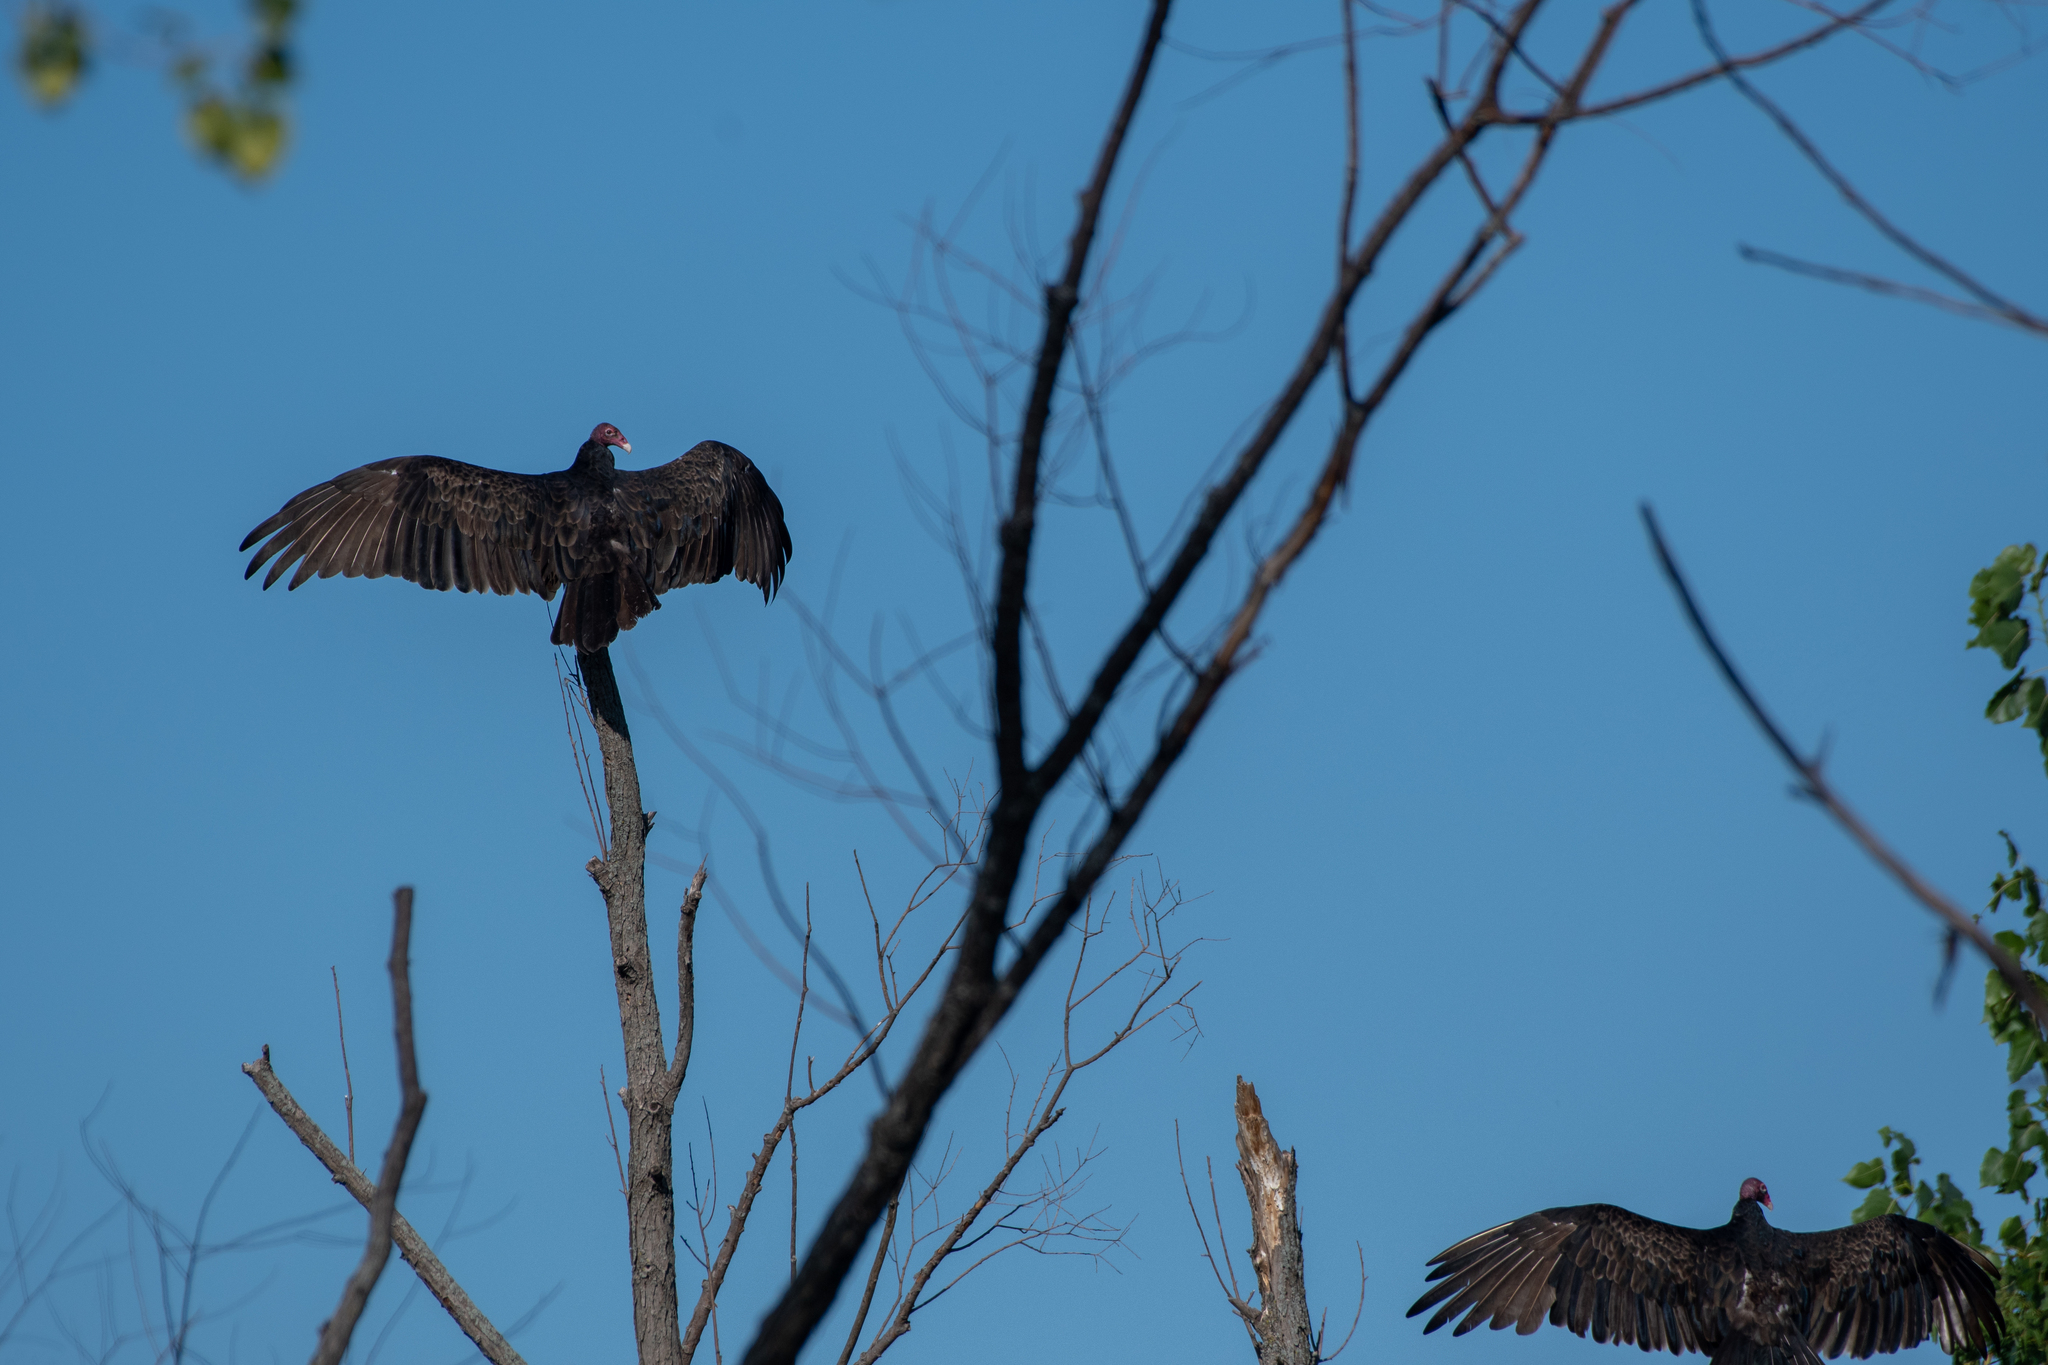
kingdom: Animalia
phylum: Chordata
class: Aves
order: Accipitriformes
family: Cathartidae
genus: Cathartes
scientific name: Cathartes aura
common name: Turkey vulture
